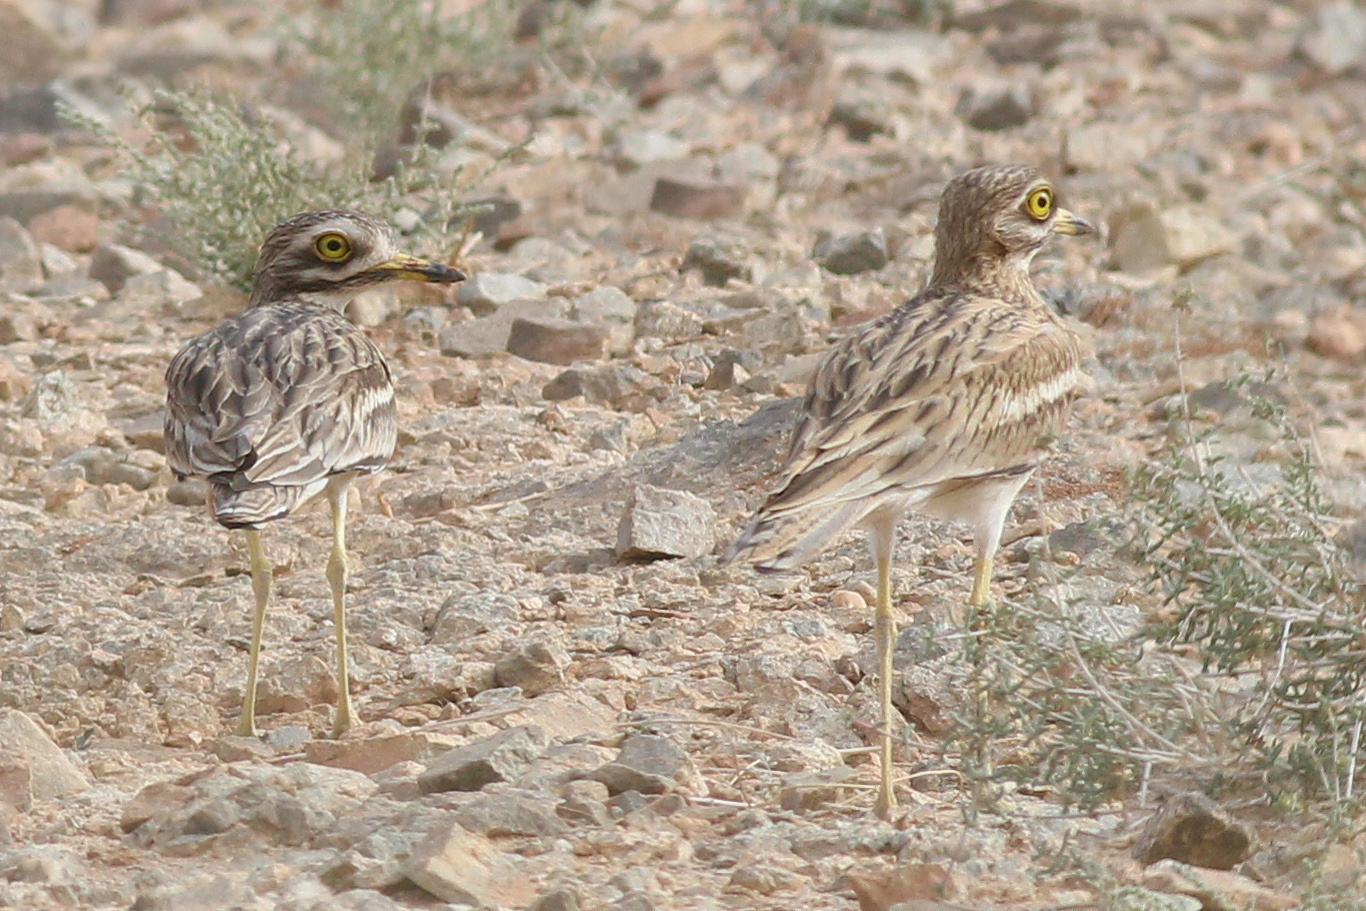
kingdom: Animalia
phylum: Chordata
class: Aves
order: Charadriiformes
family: Burhinidae
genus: Burhinus
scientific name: Burhinus oedicnemus
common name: Eurasian stone-curlew
